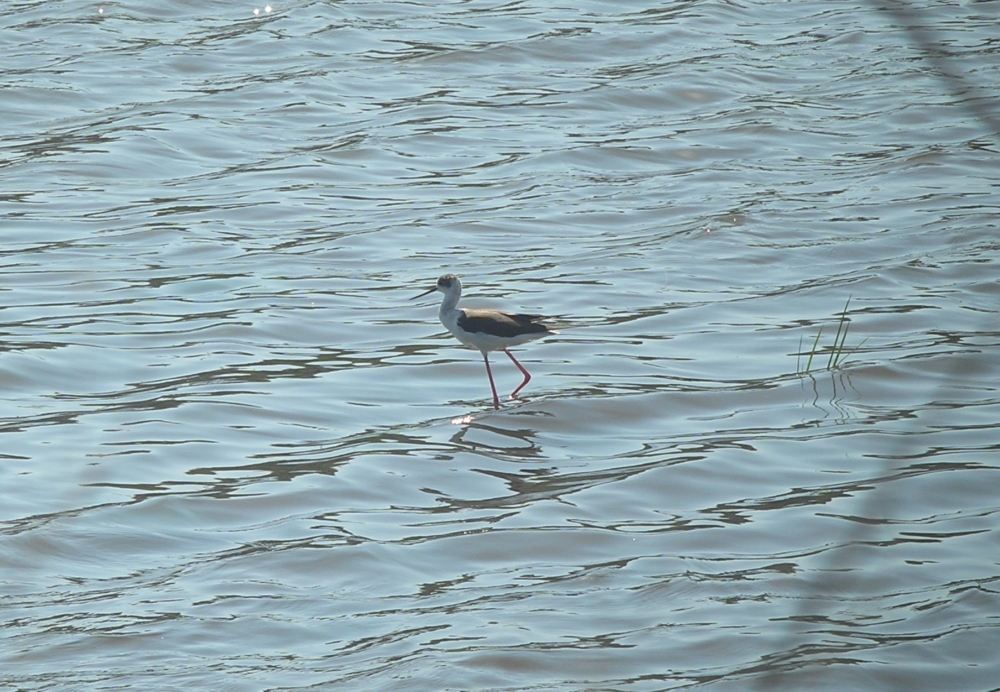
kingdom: Animalia
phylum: Chordata
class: Aves
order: Charadriiformes
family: Recurvirostridae
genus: Himantopus
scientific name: Himantopus himantopus
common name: Black-winged stilt
